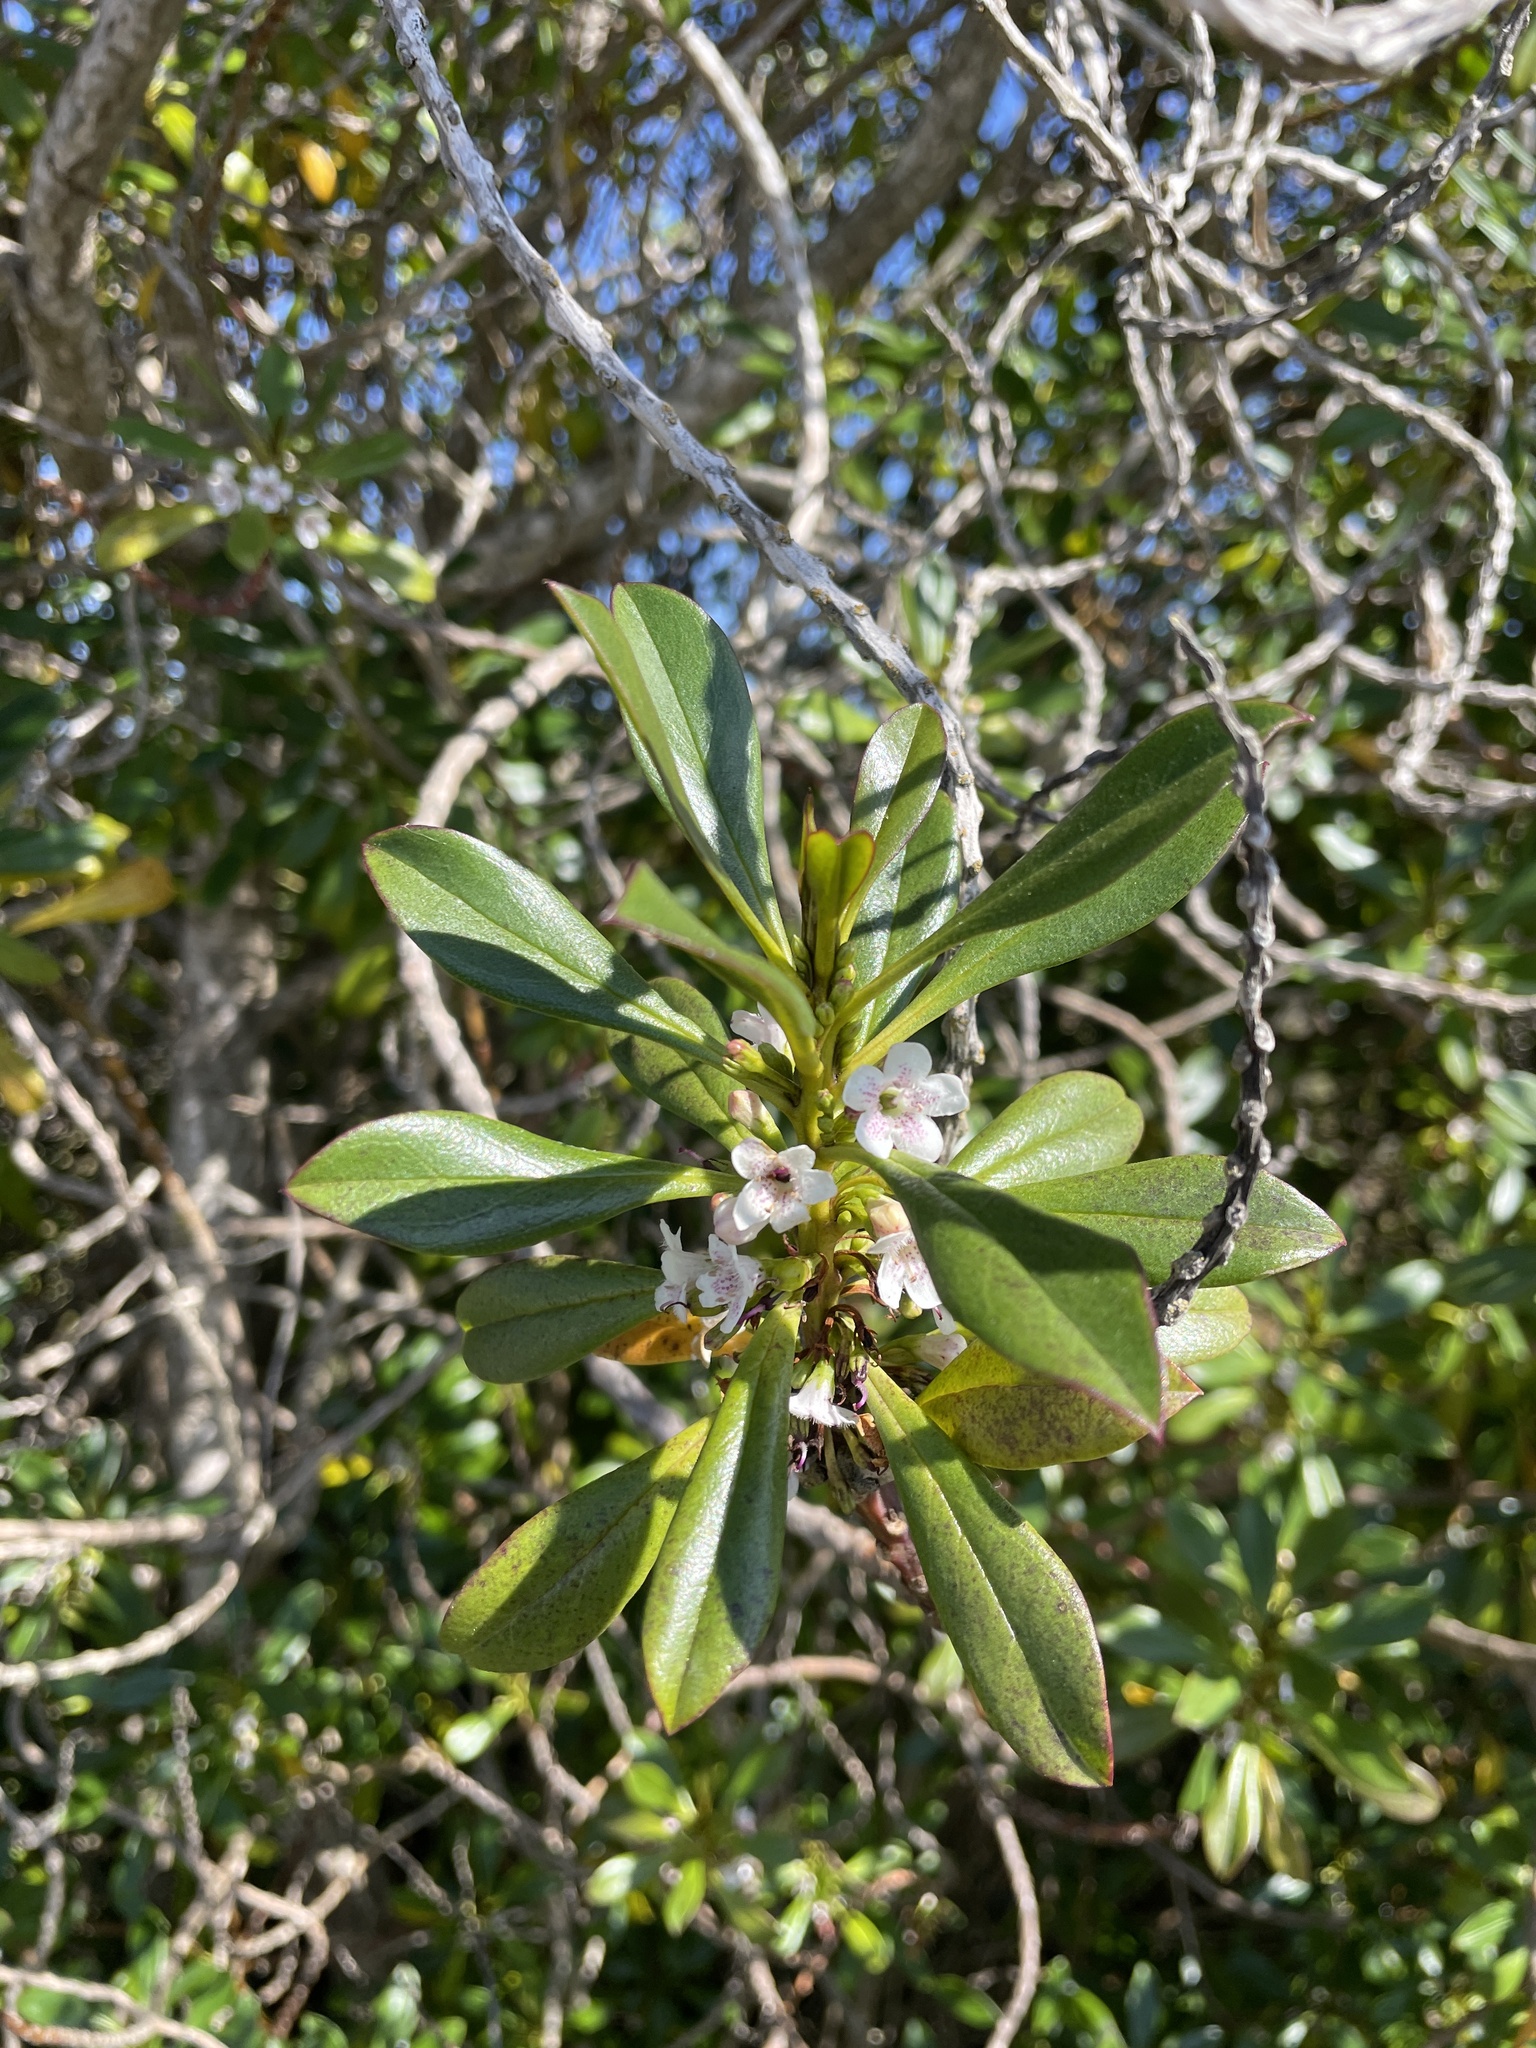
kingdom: Plantae
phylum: Tracheophyta
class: Magnoliopsida
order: Lamiales
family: Scrophulariaceae
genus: Myoporum
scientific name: Myoporum laetum
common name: Ngaio tree
